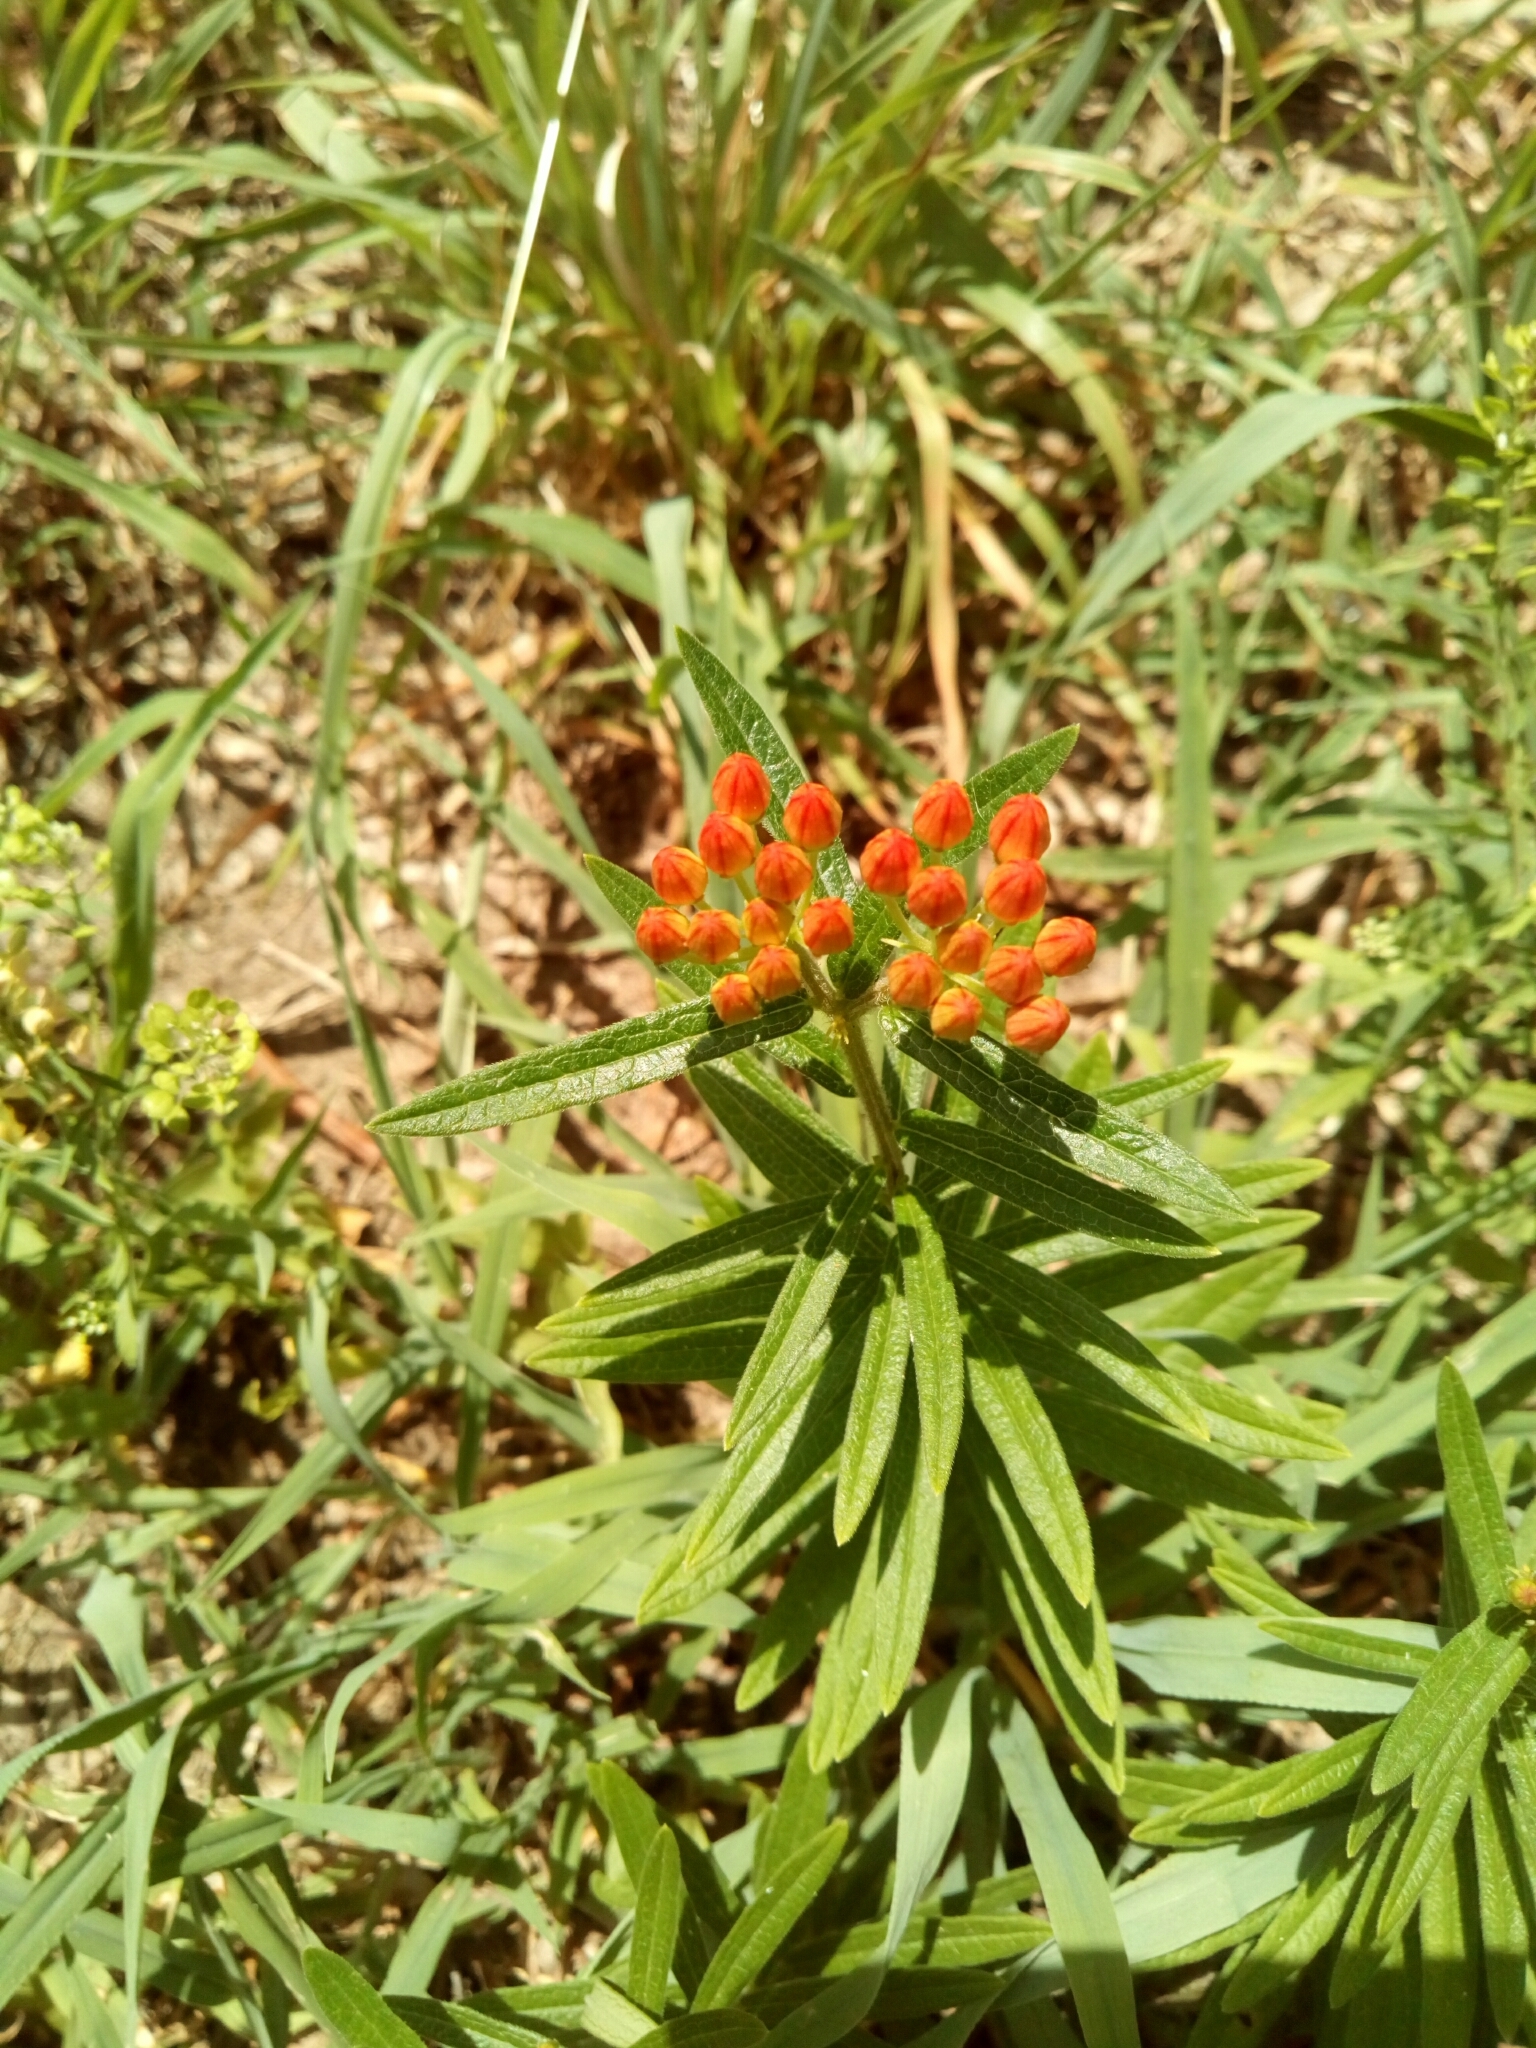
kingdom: Plantae
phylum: Tracheophyta
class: Magnoliopsida
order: Gentianales
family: Apocynaceae
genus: Asclepias
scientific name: Asclepias tuberosa
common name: Butterfly milkweed
